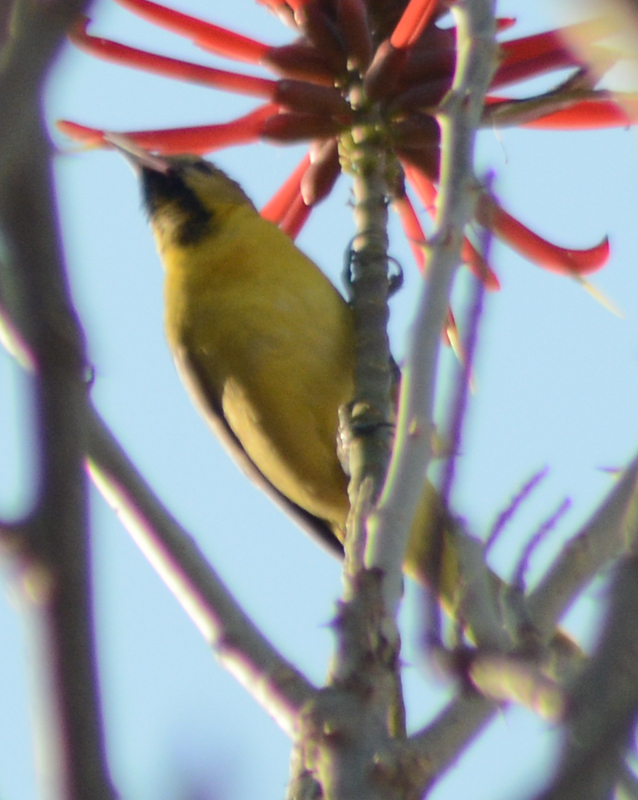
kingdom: Animalia
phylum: Chordata
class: Aves
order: Passeriformes
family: Icteridae
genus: Icterus
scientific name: Icterus cucullatus
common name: Hooded oriole
